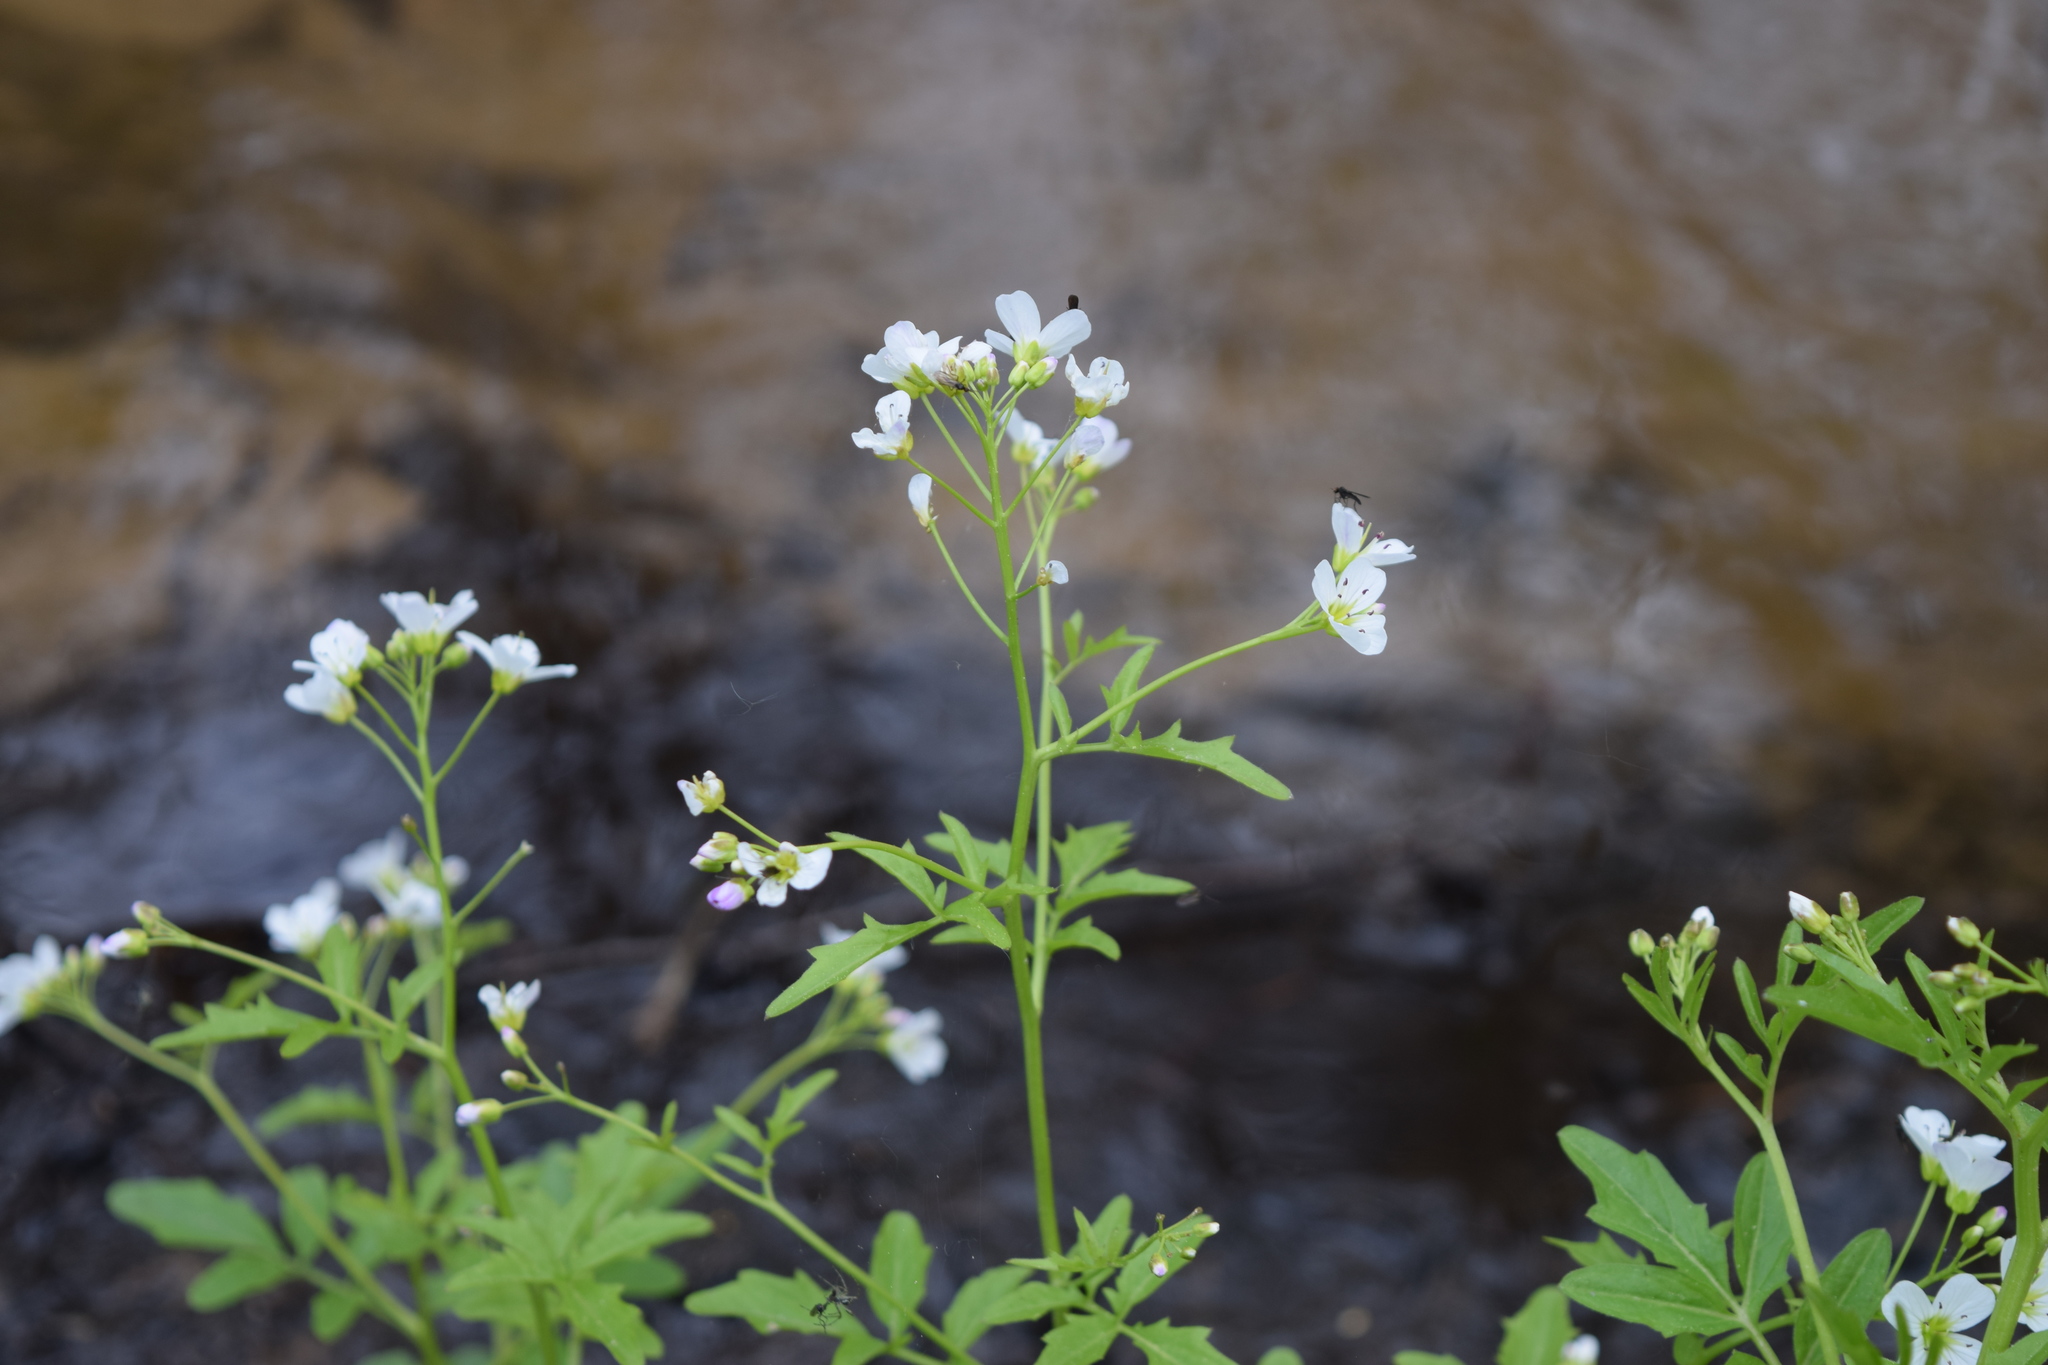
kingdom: Plantae
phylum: Tracheophyta
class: Magnoliopsida
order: Brassicales
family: Brassicaceae
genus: Cardamine
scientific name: Cardamine amara
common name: Large bitter-cress
